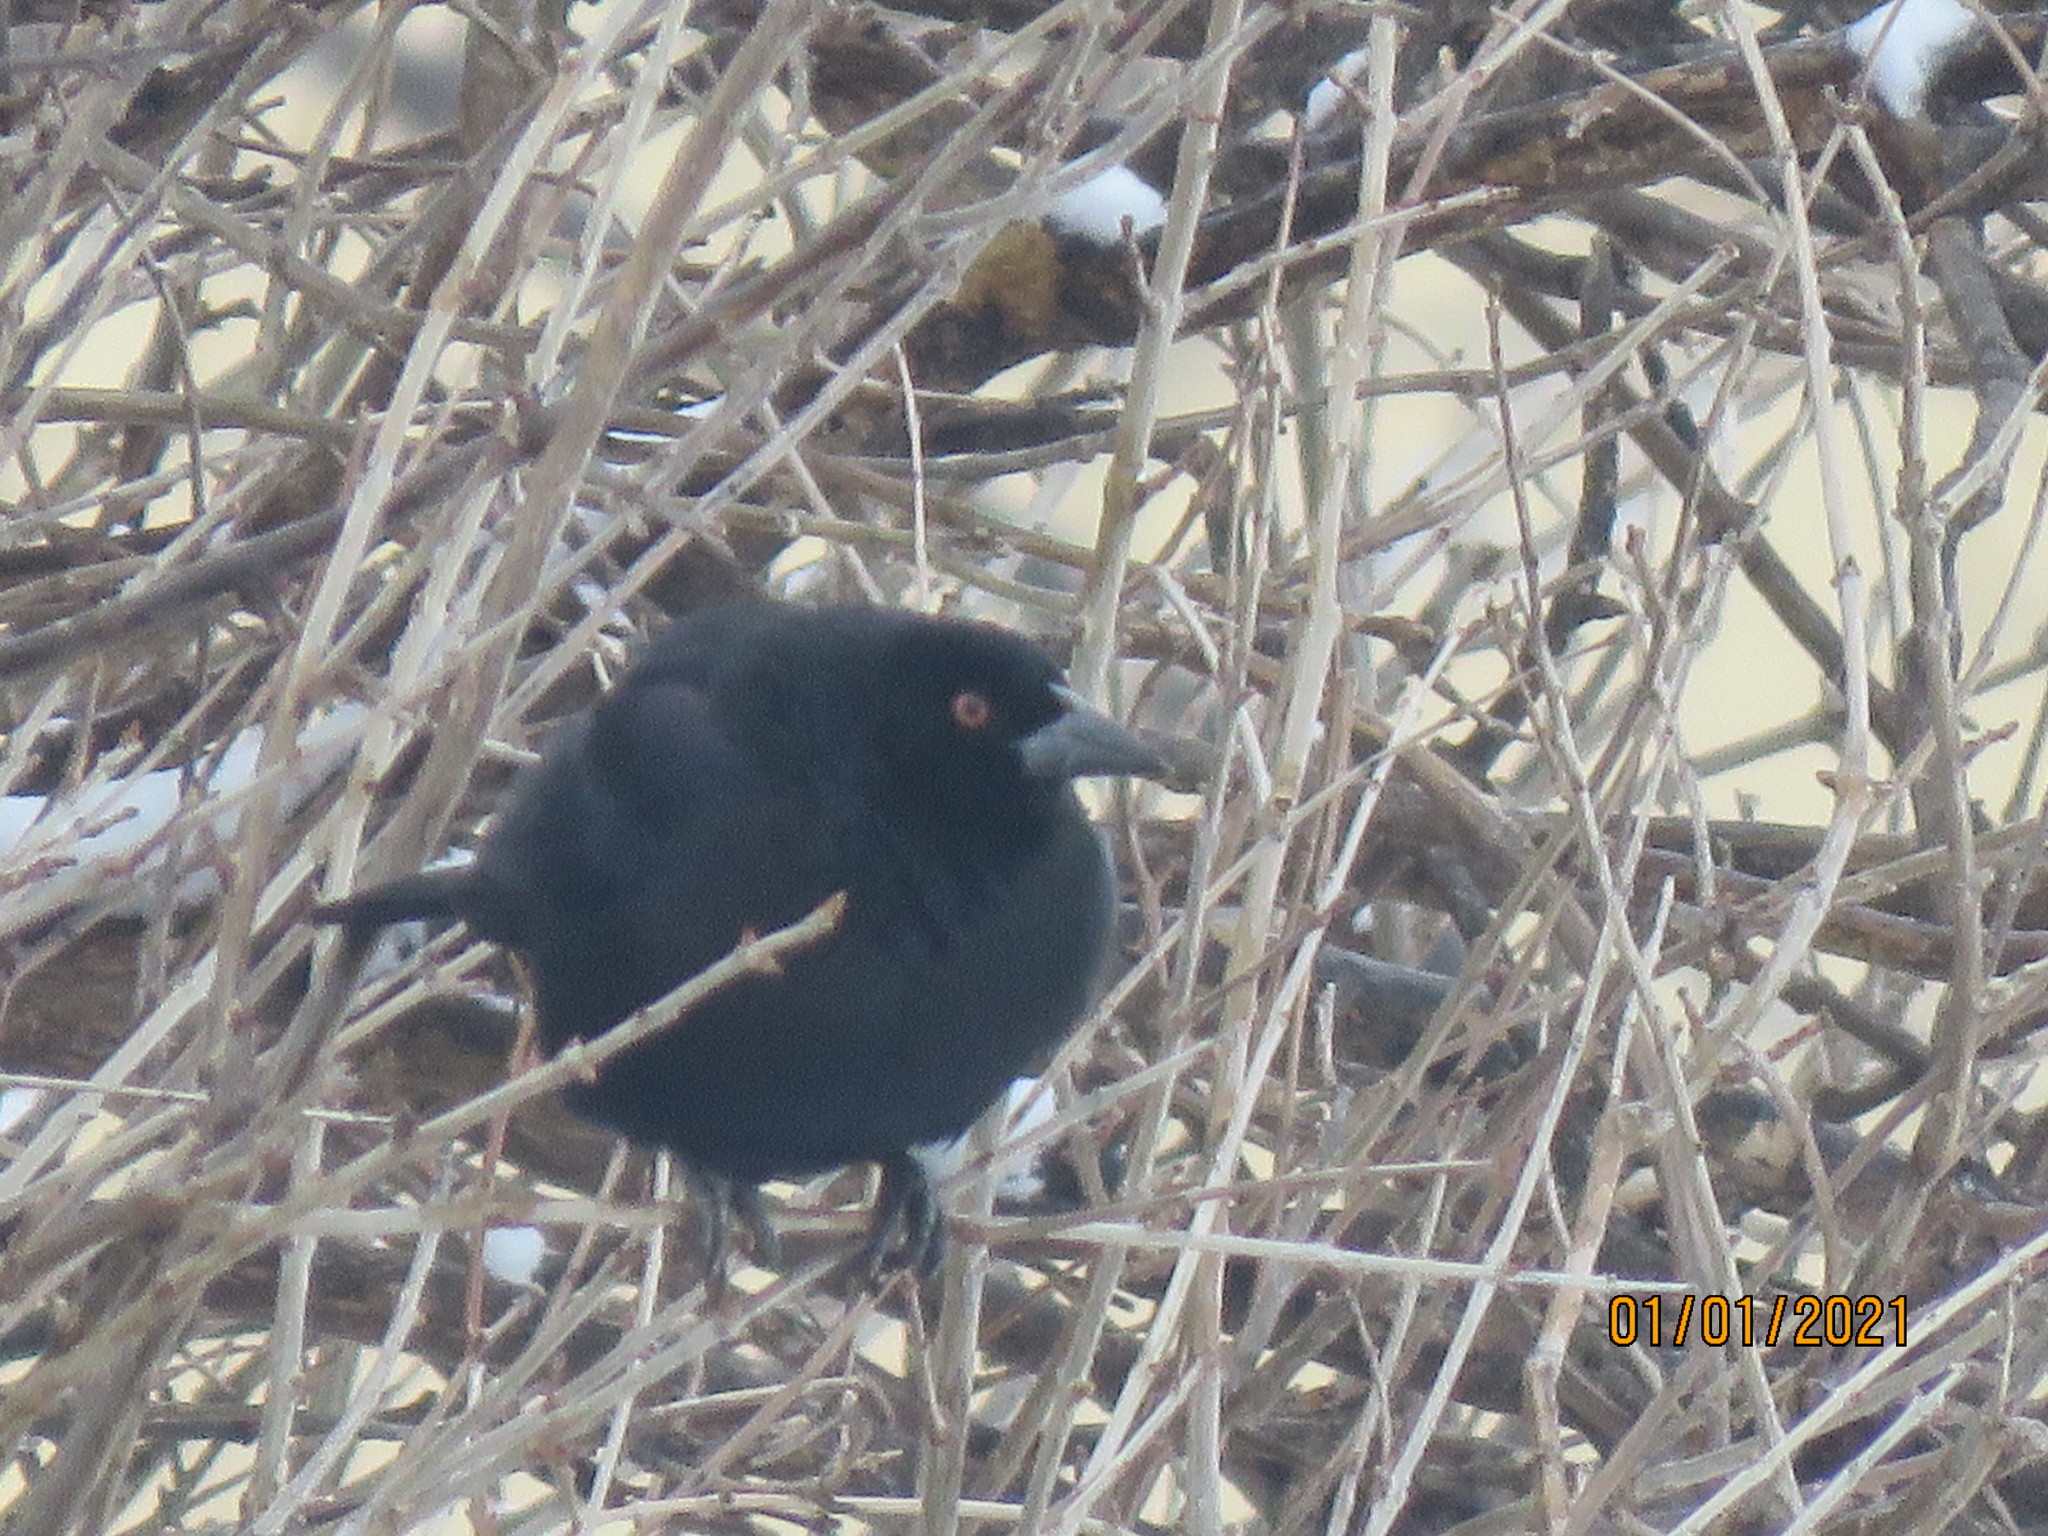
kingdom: Animalia
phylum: Chordata
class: Aves
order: Passeriformes
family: Icteridae
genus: Molothrus
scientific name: Molothrus aeneus
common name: Bronzed cowbird
